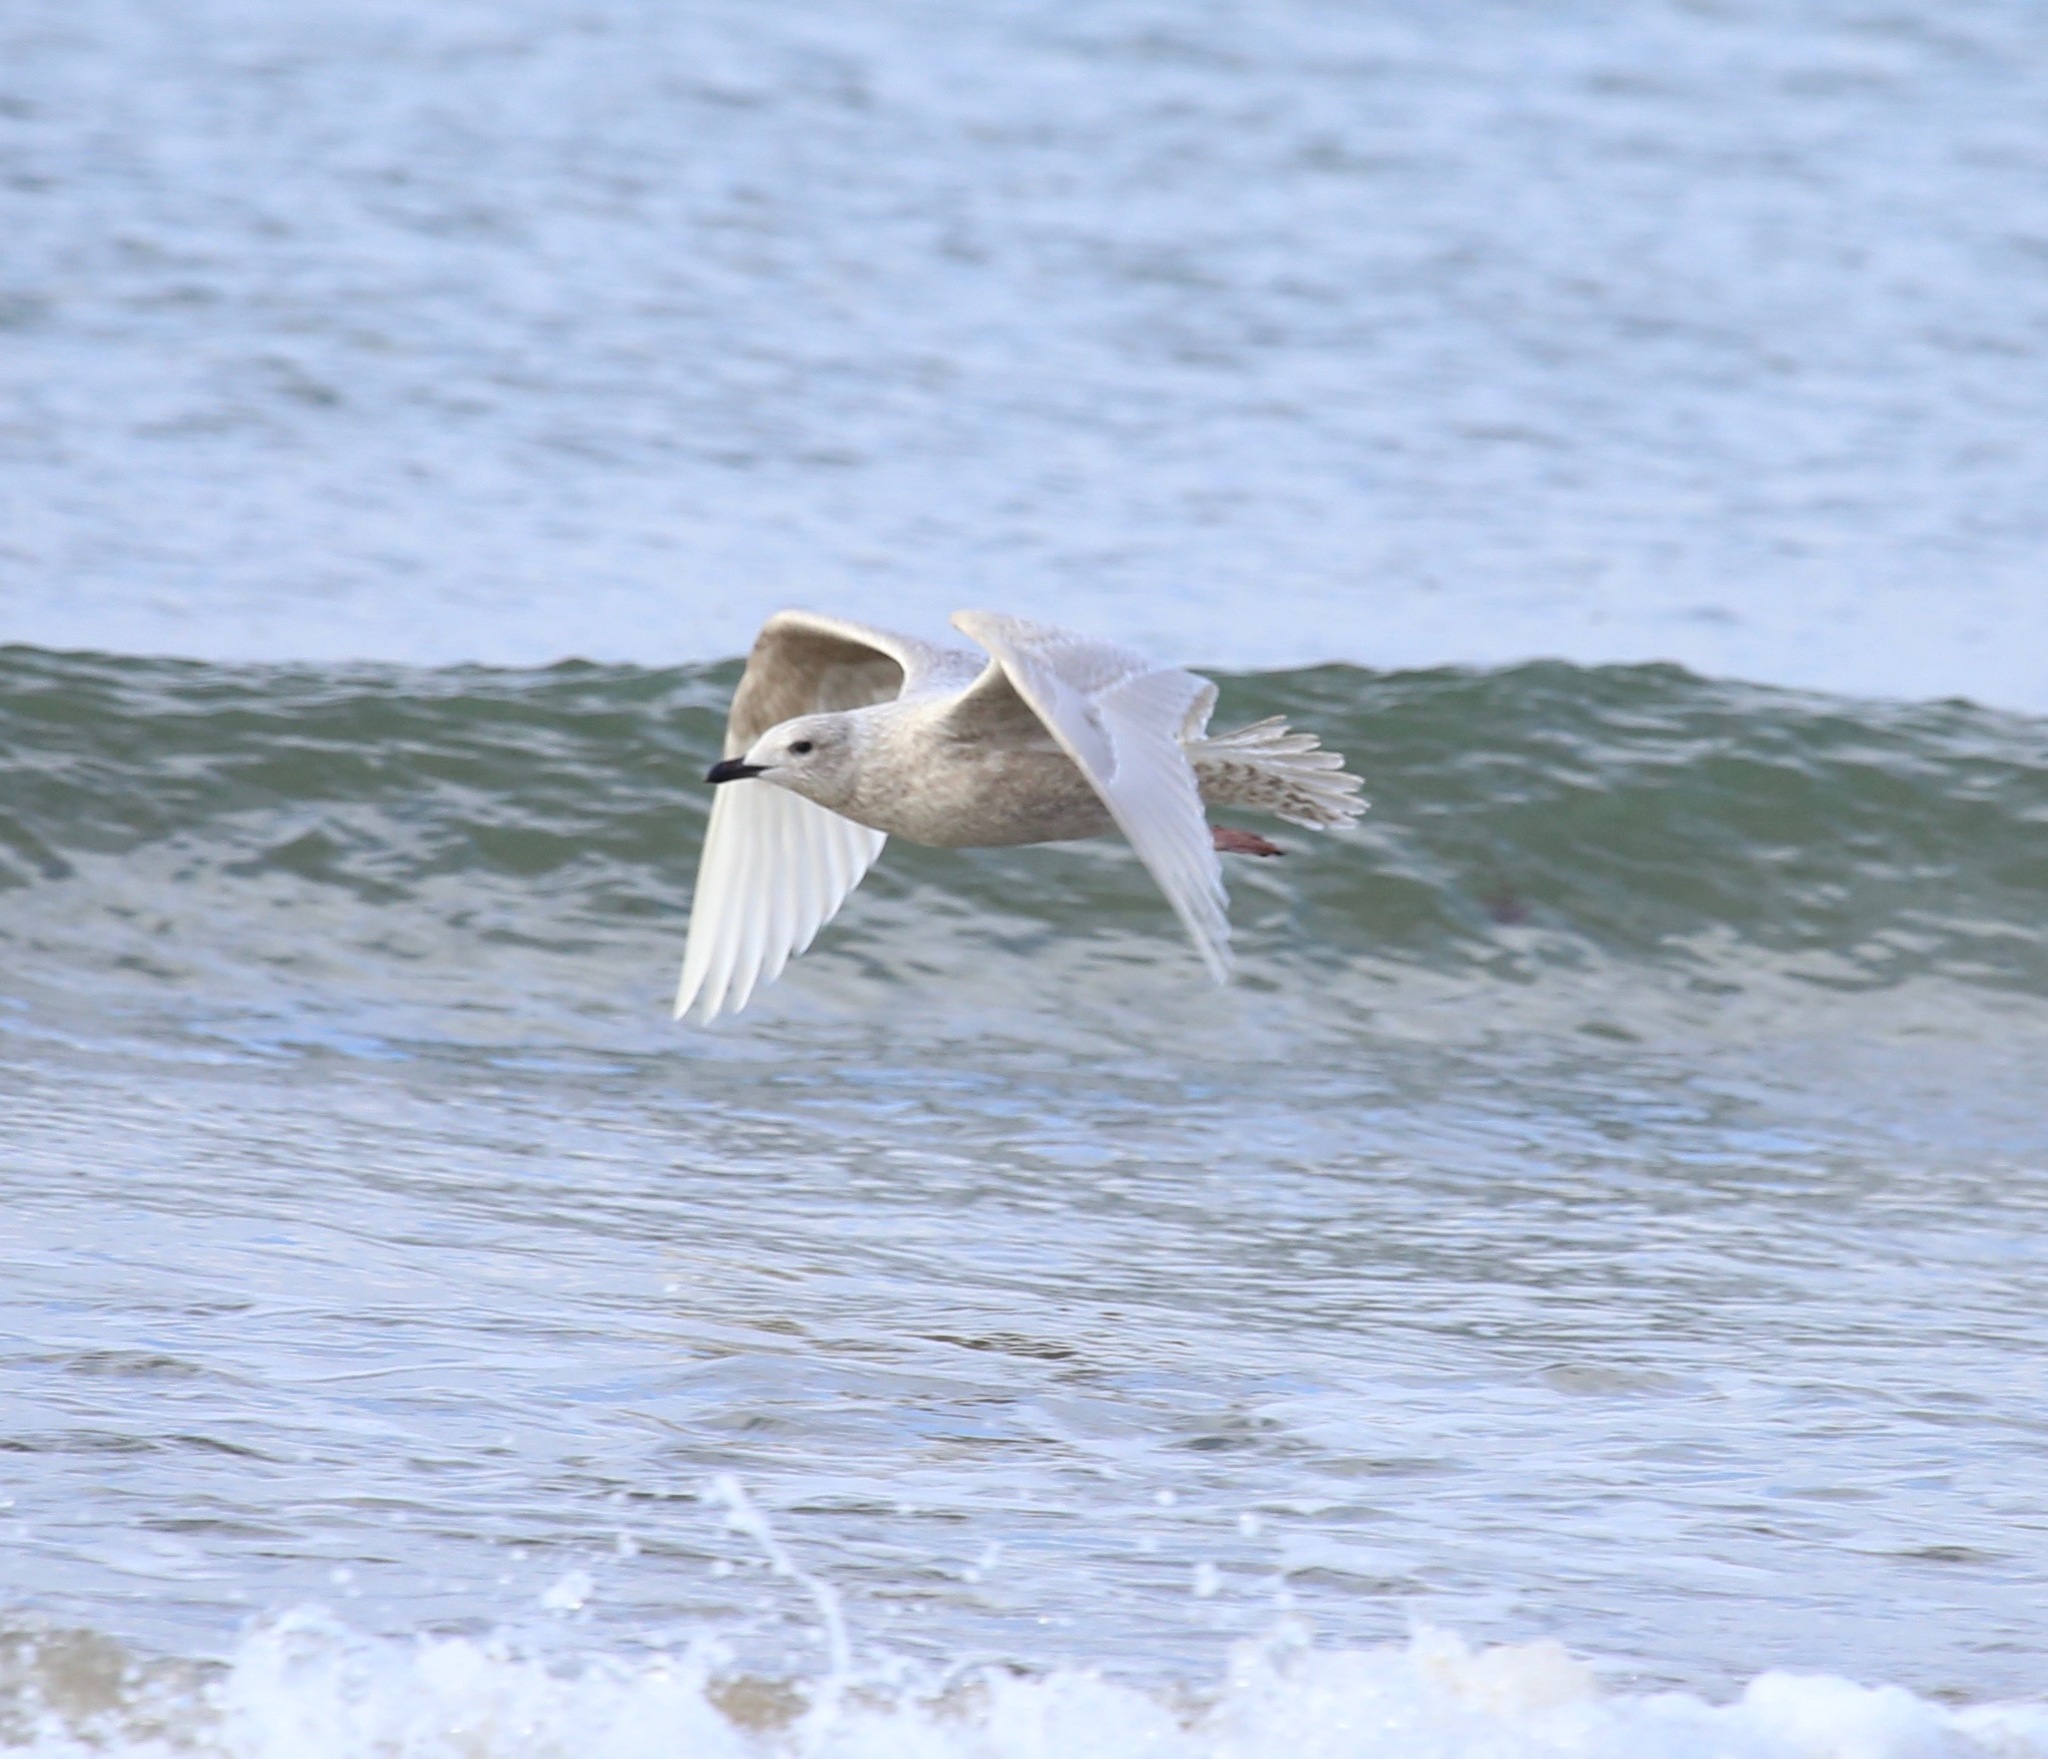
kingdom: Animalia
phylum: Chordata
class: Aves
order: Charadriiformes
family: Laridae
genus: Larus
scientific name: Larus glaucoides
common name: Iceland gull
